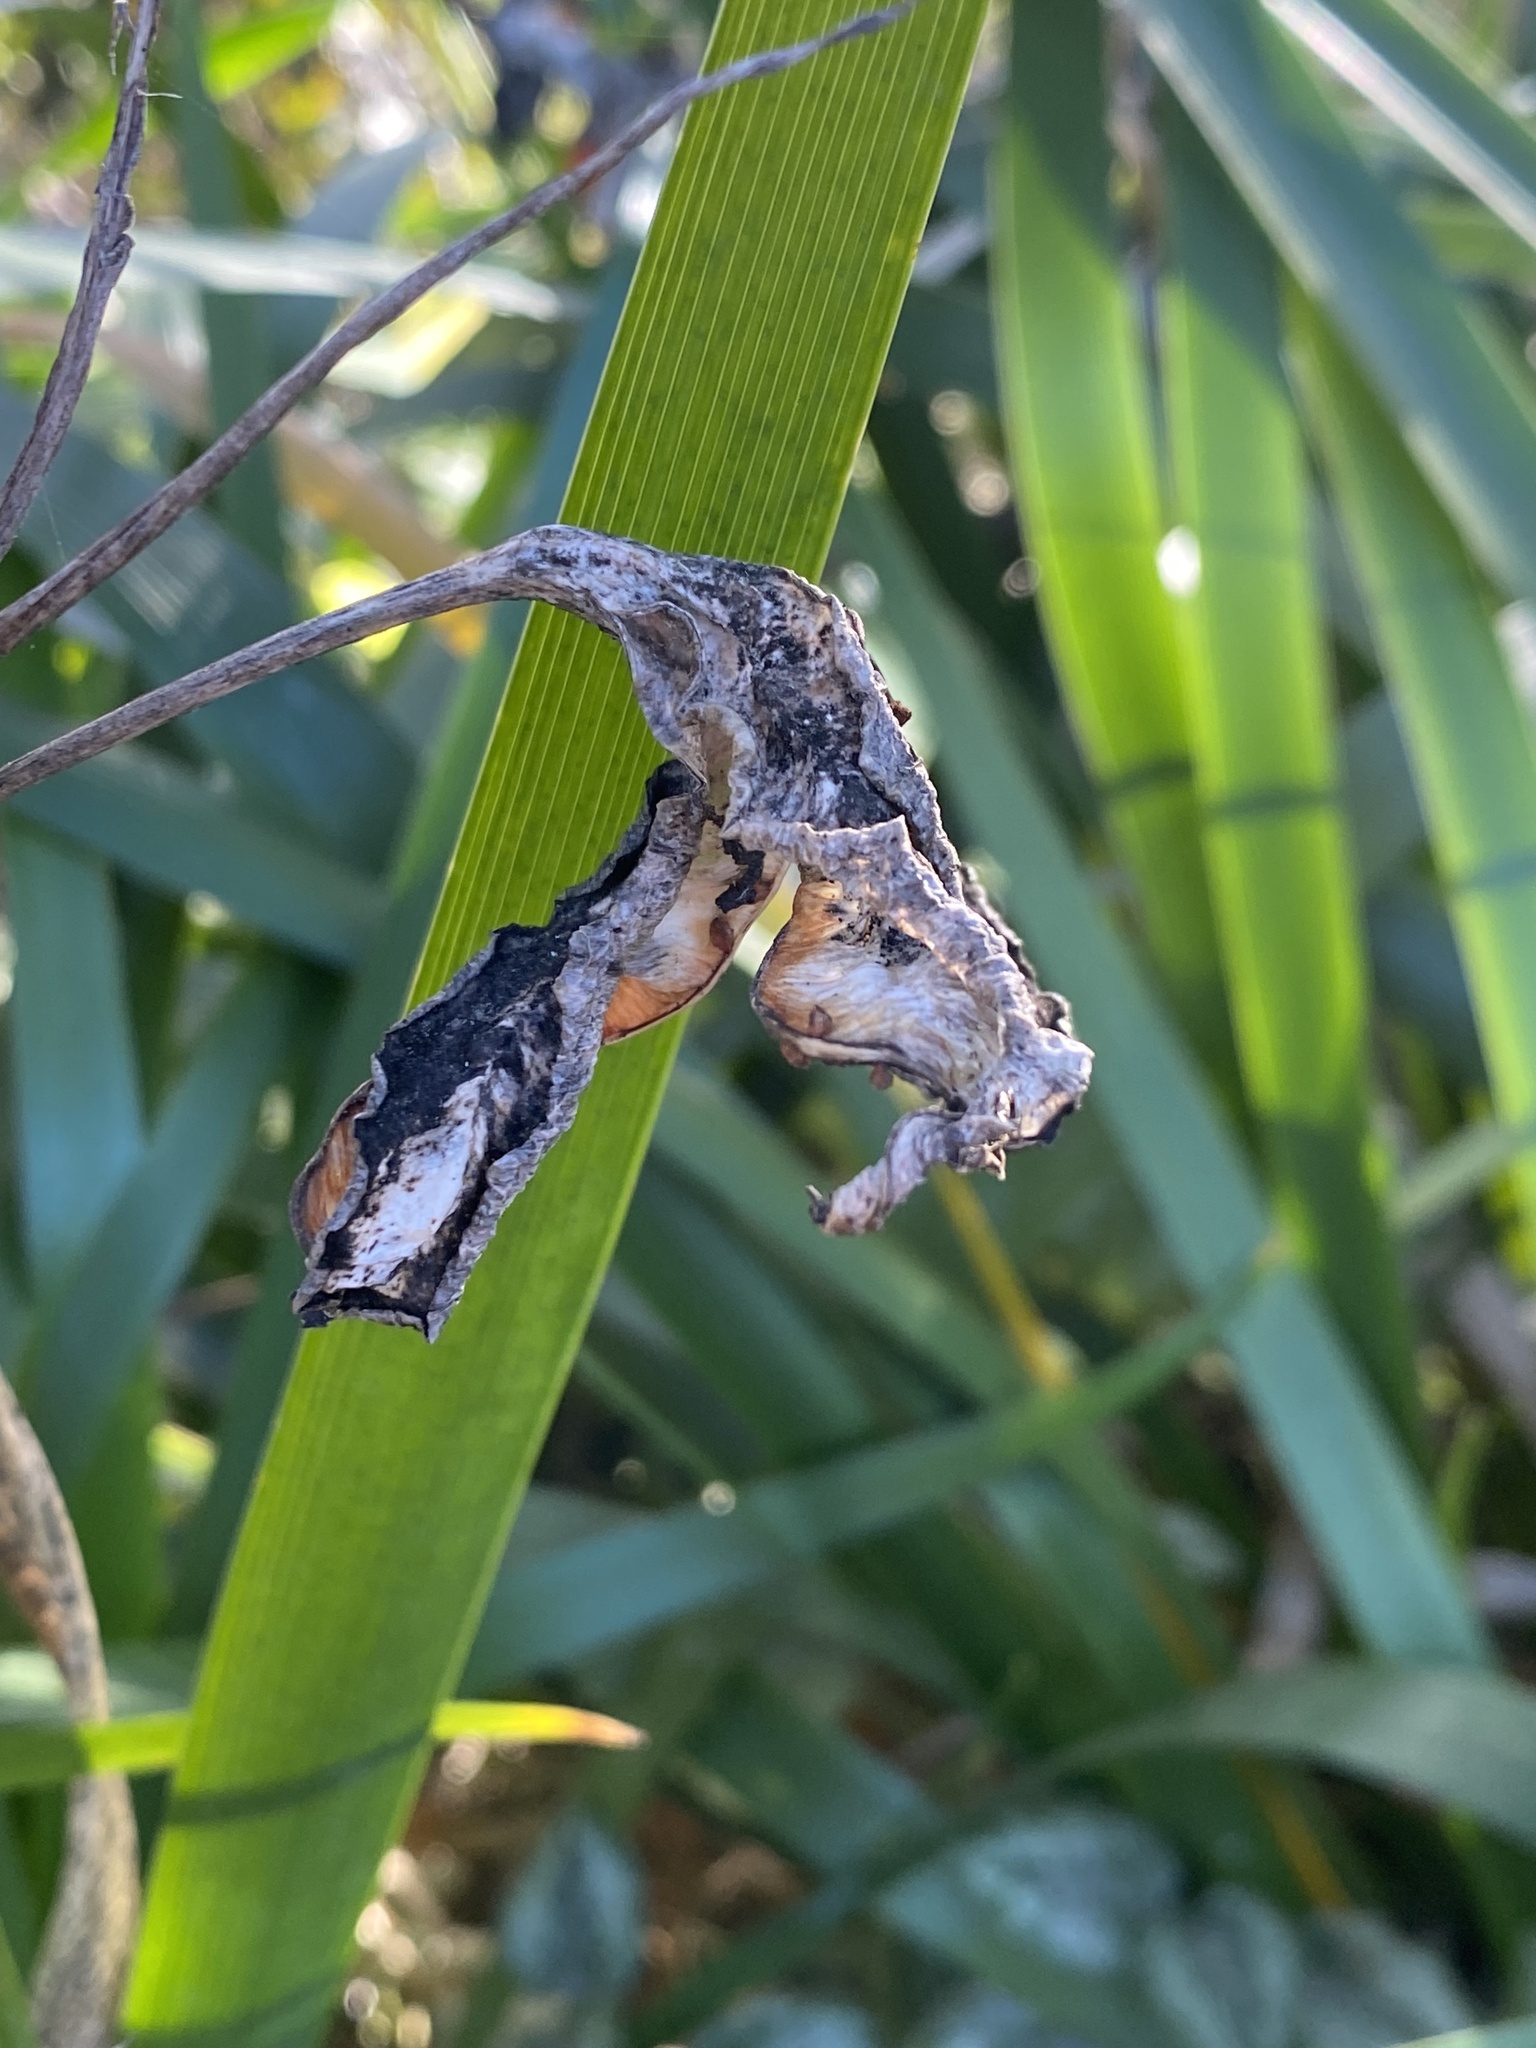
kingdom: Plantae
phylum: Tracheophyta
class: Liliopsida
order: Asparagales
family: Iridaceae
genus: Iris
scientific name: Iris foetidissima
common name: Stinking iris
